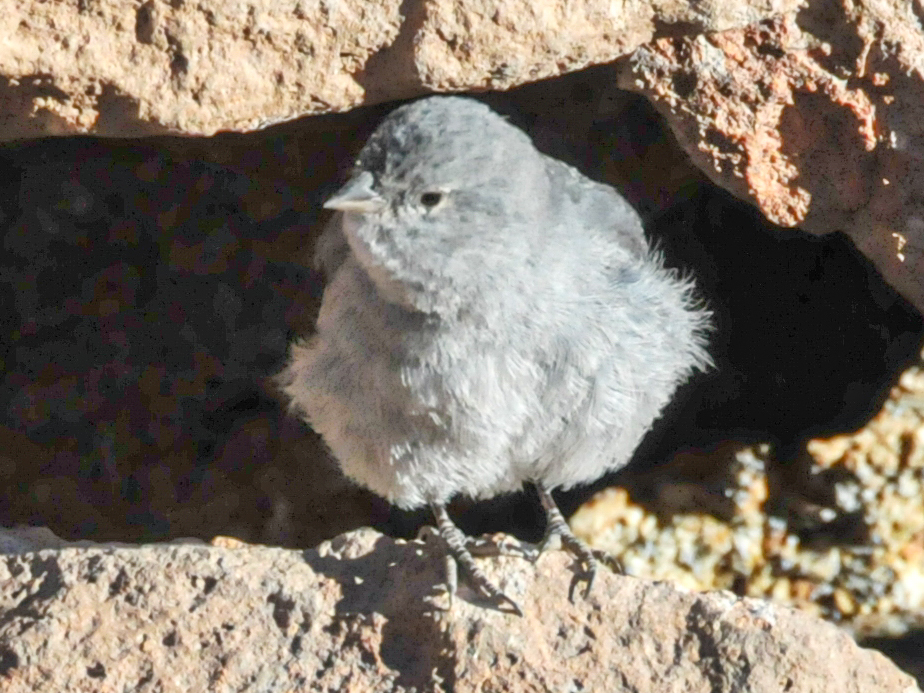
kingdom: Animalia
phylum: Chordata
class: Aves
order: Passeriformes
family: Thraupidae
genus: Geospizopsis
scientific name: Geospizopsis unicolor
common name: Plumbeous sierra-finch
